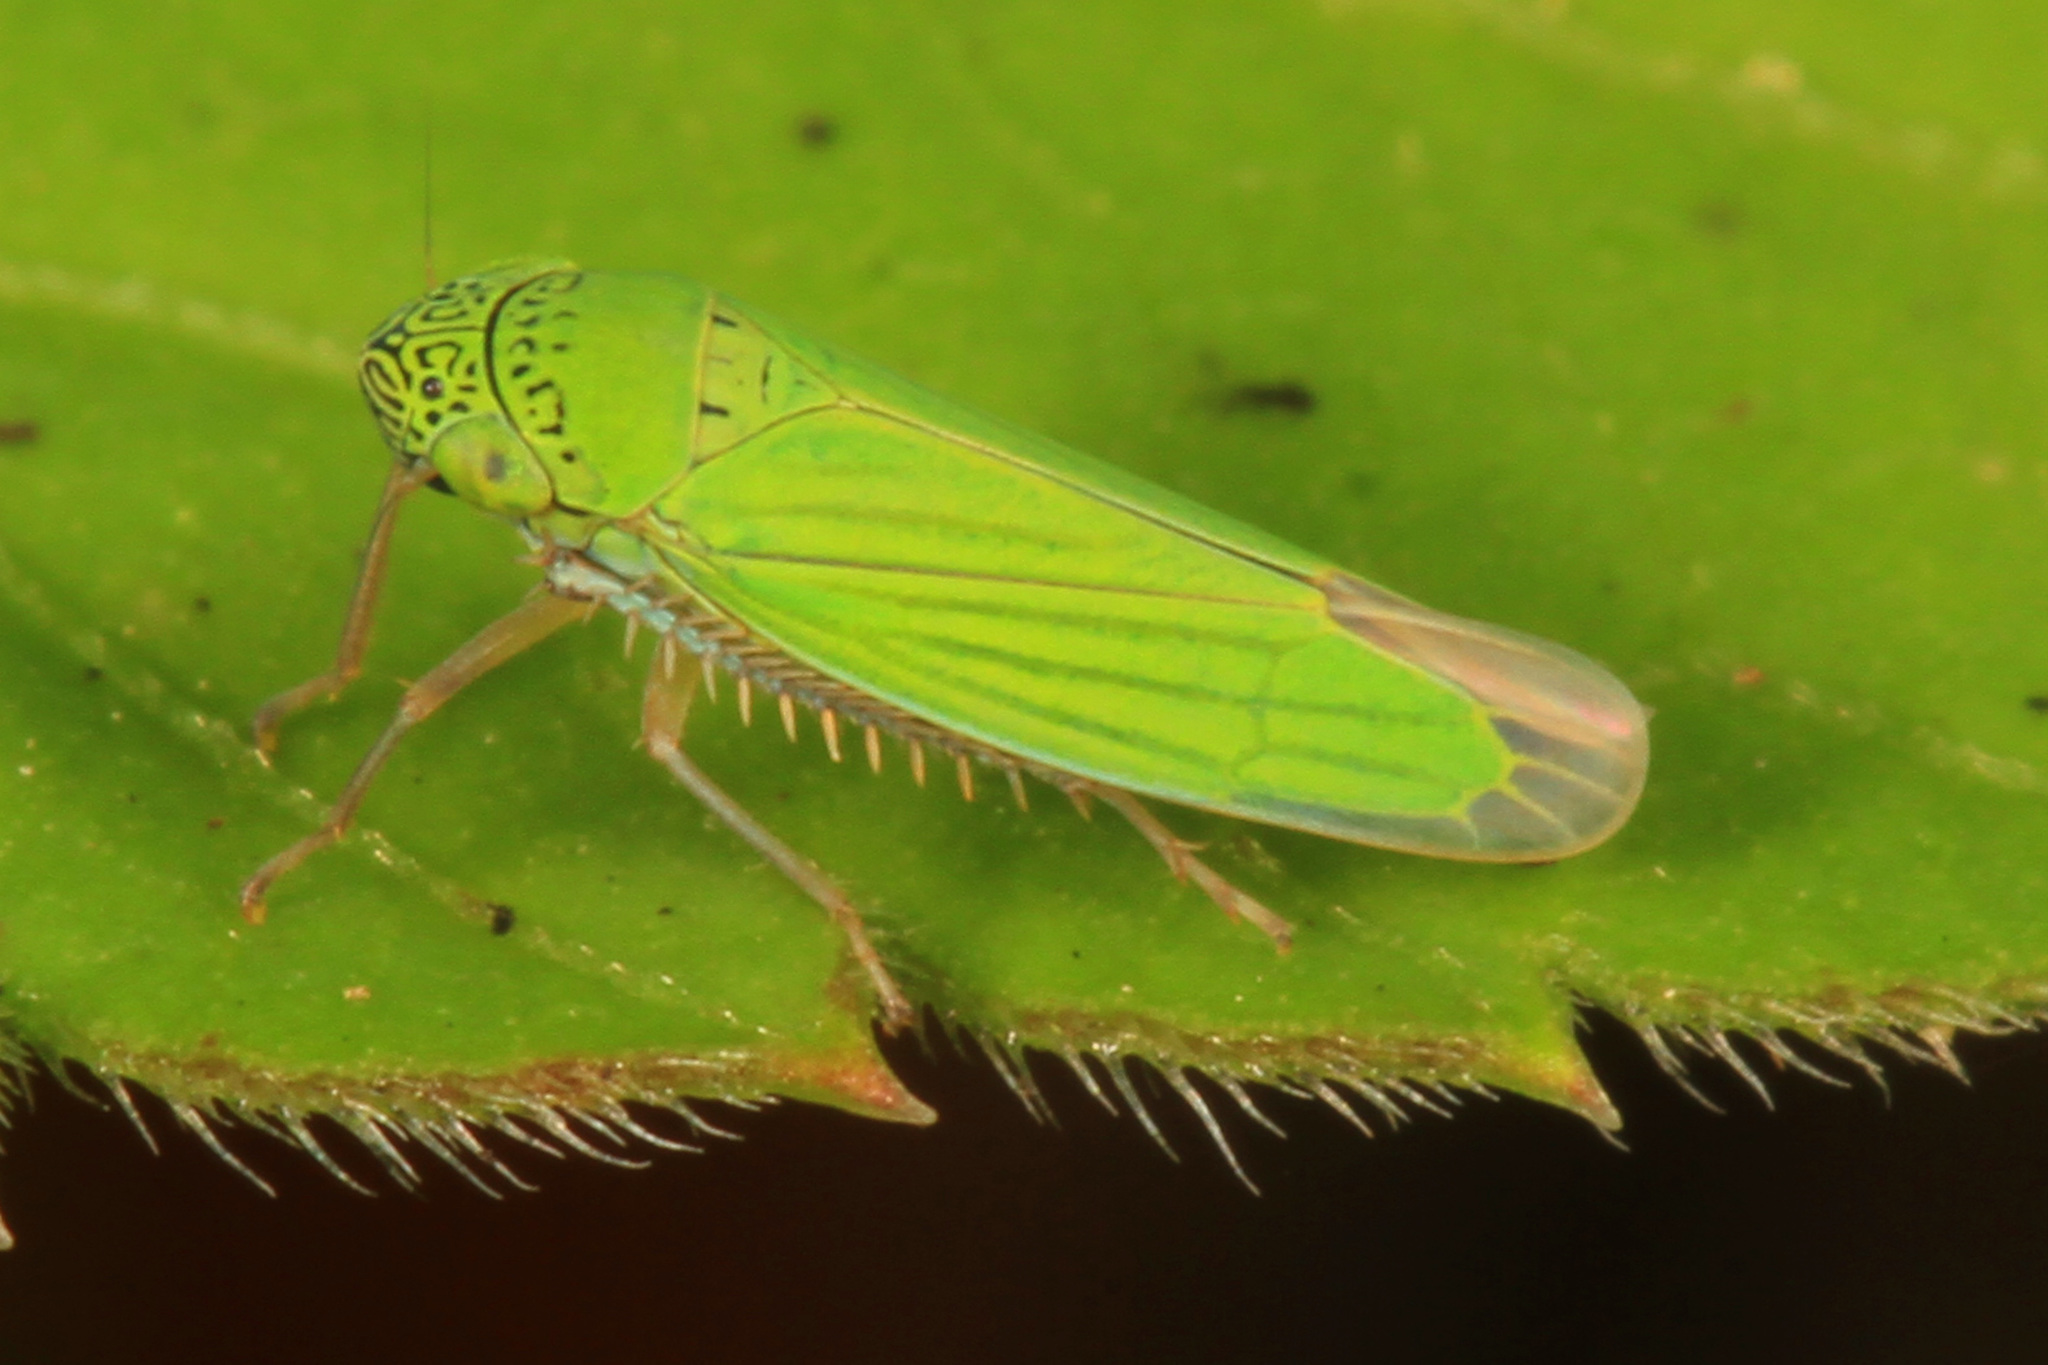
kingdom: Animalia
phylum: Arthropoda
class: Insecta
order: Hemiptera
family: Cicadellidae
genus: Hortensia
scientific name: Hortensia similis
